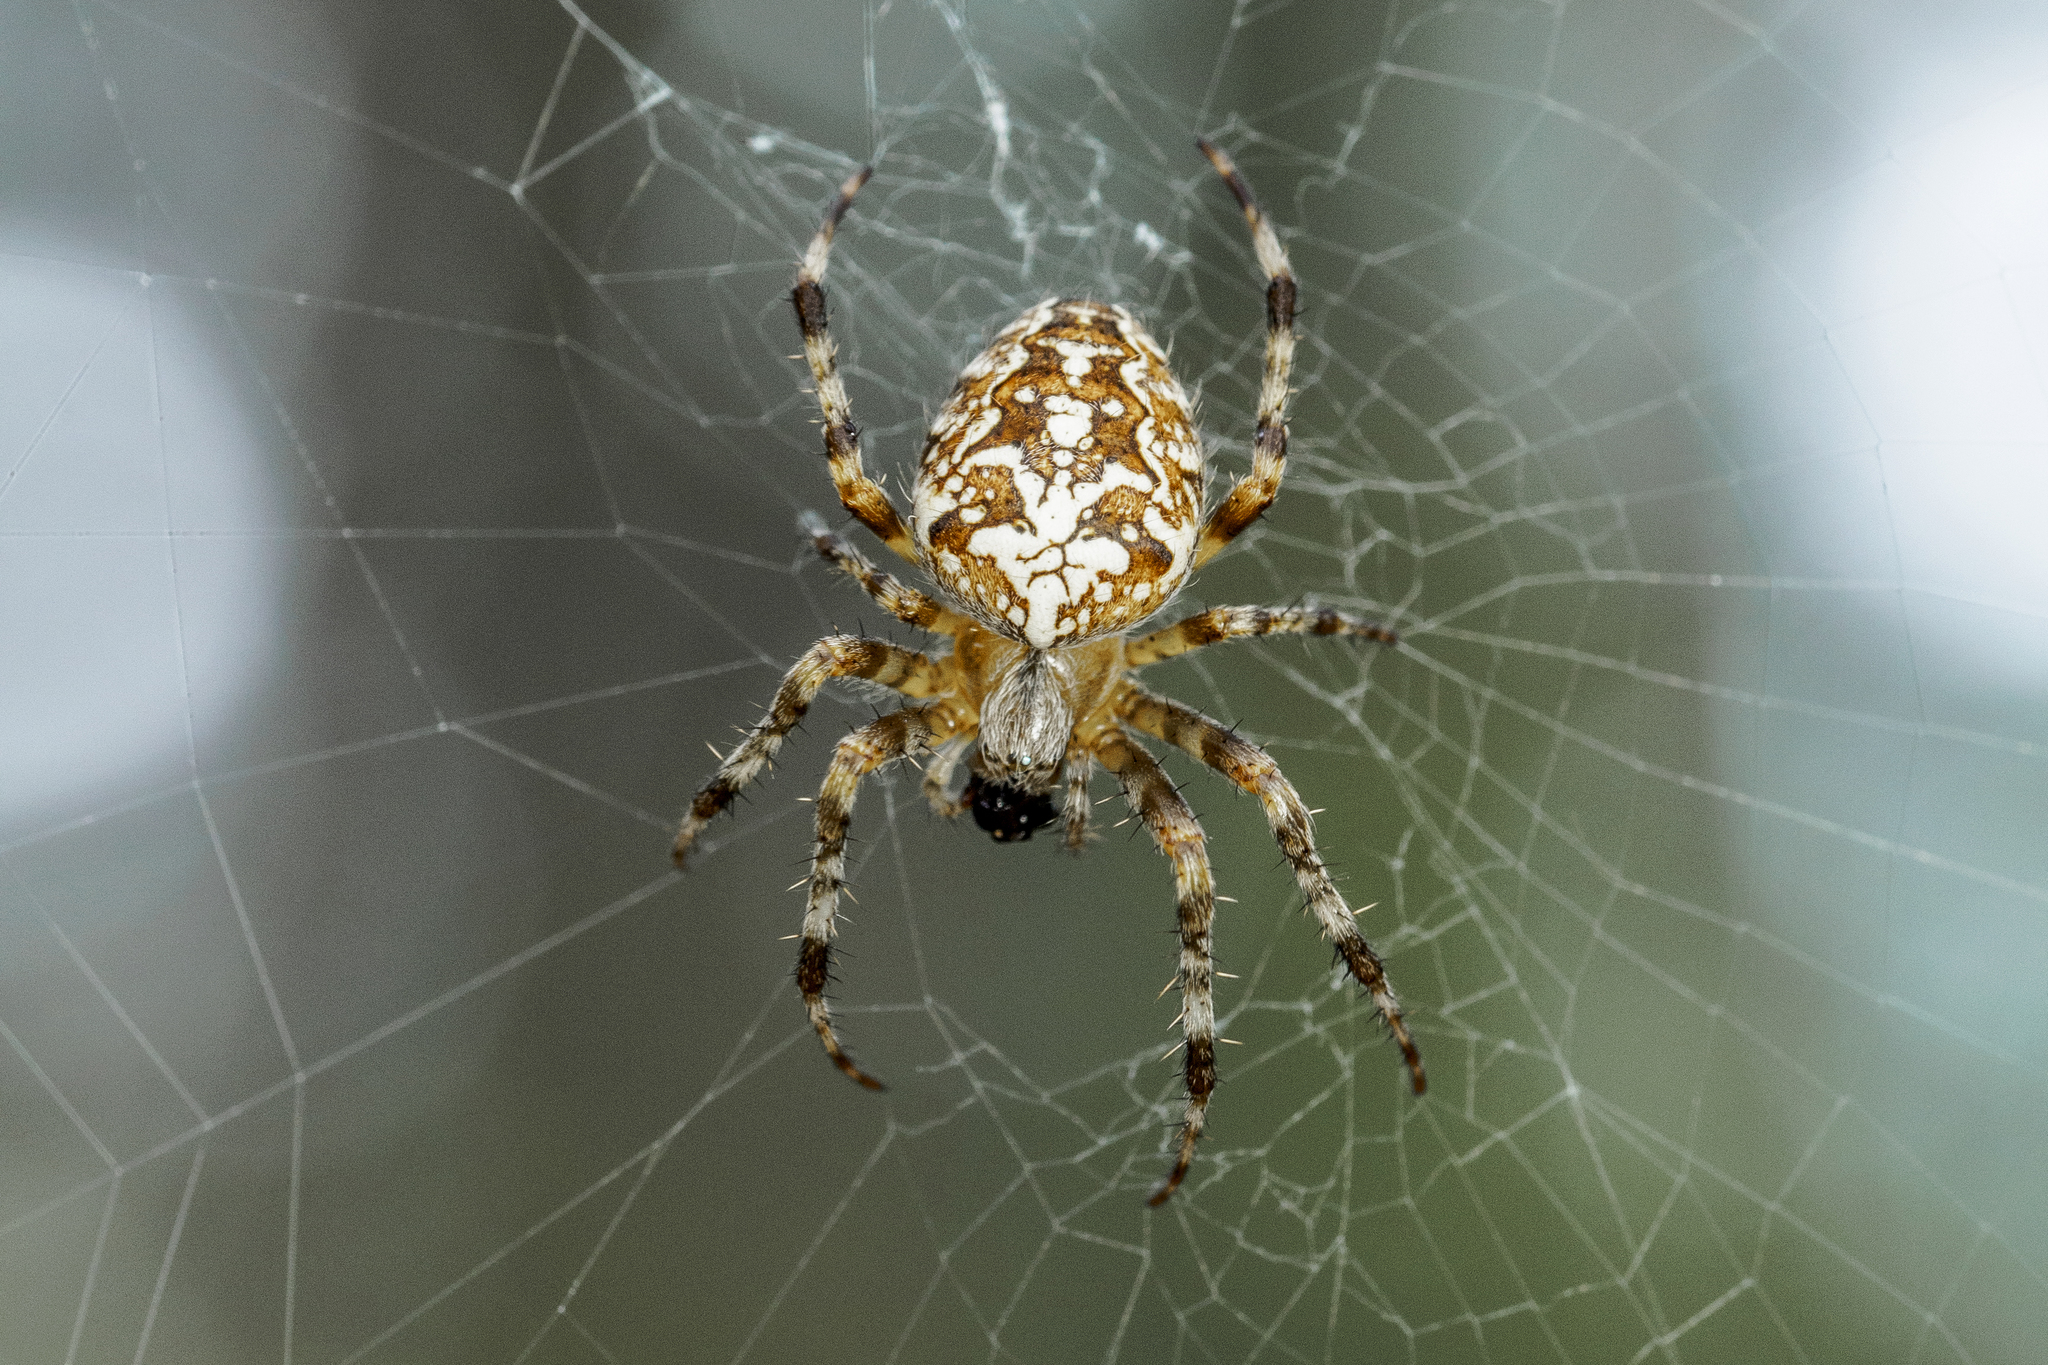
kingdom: Animalia
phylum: Arthropoda
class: Arachnida
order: Araneae
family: Araneidae
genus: Araneus
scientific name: Araneus diadematus
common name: Cross orbweaver
